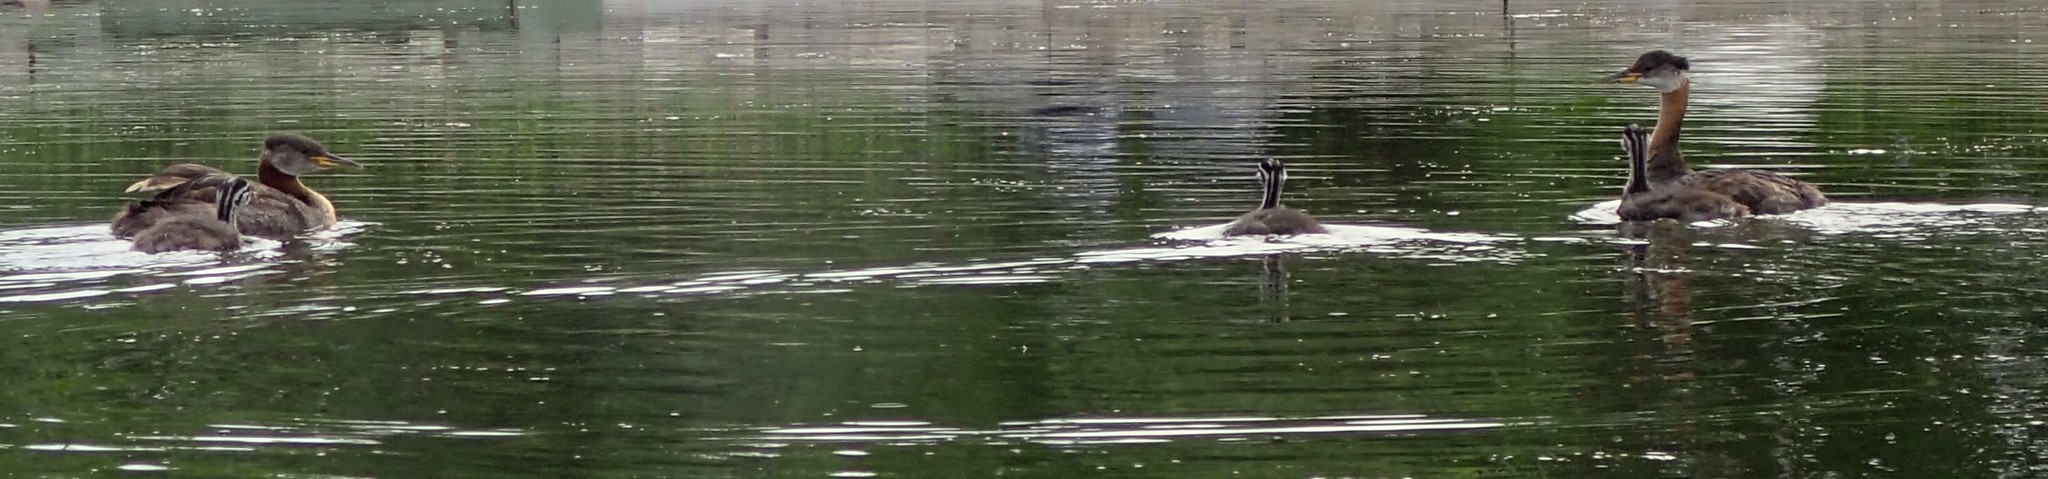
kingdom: Animalia
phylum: Chordata
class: Aves
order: Podicipediformes
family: Podicipedidae
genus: Podiceps
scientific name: Podiceps grisegena
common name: Red-necked grebe
